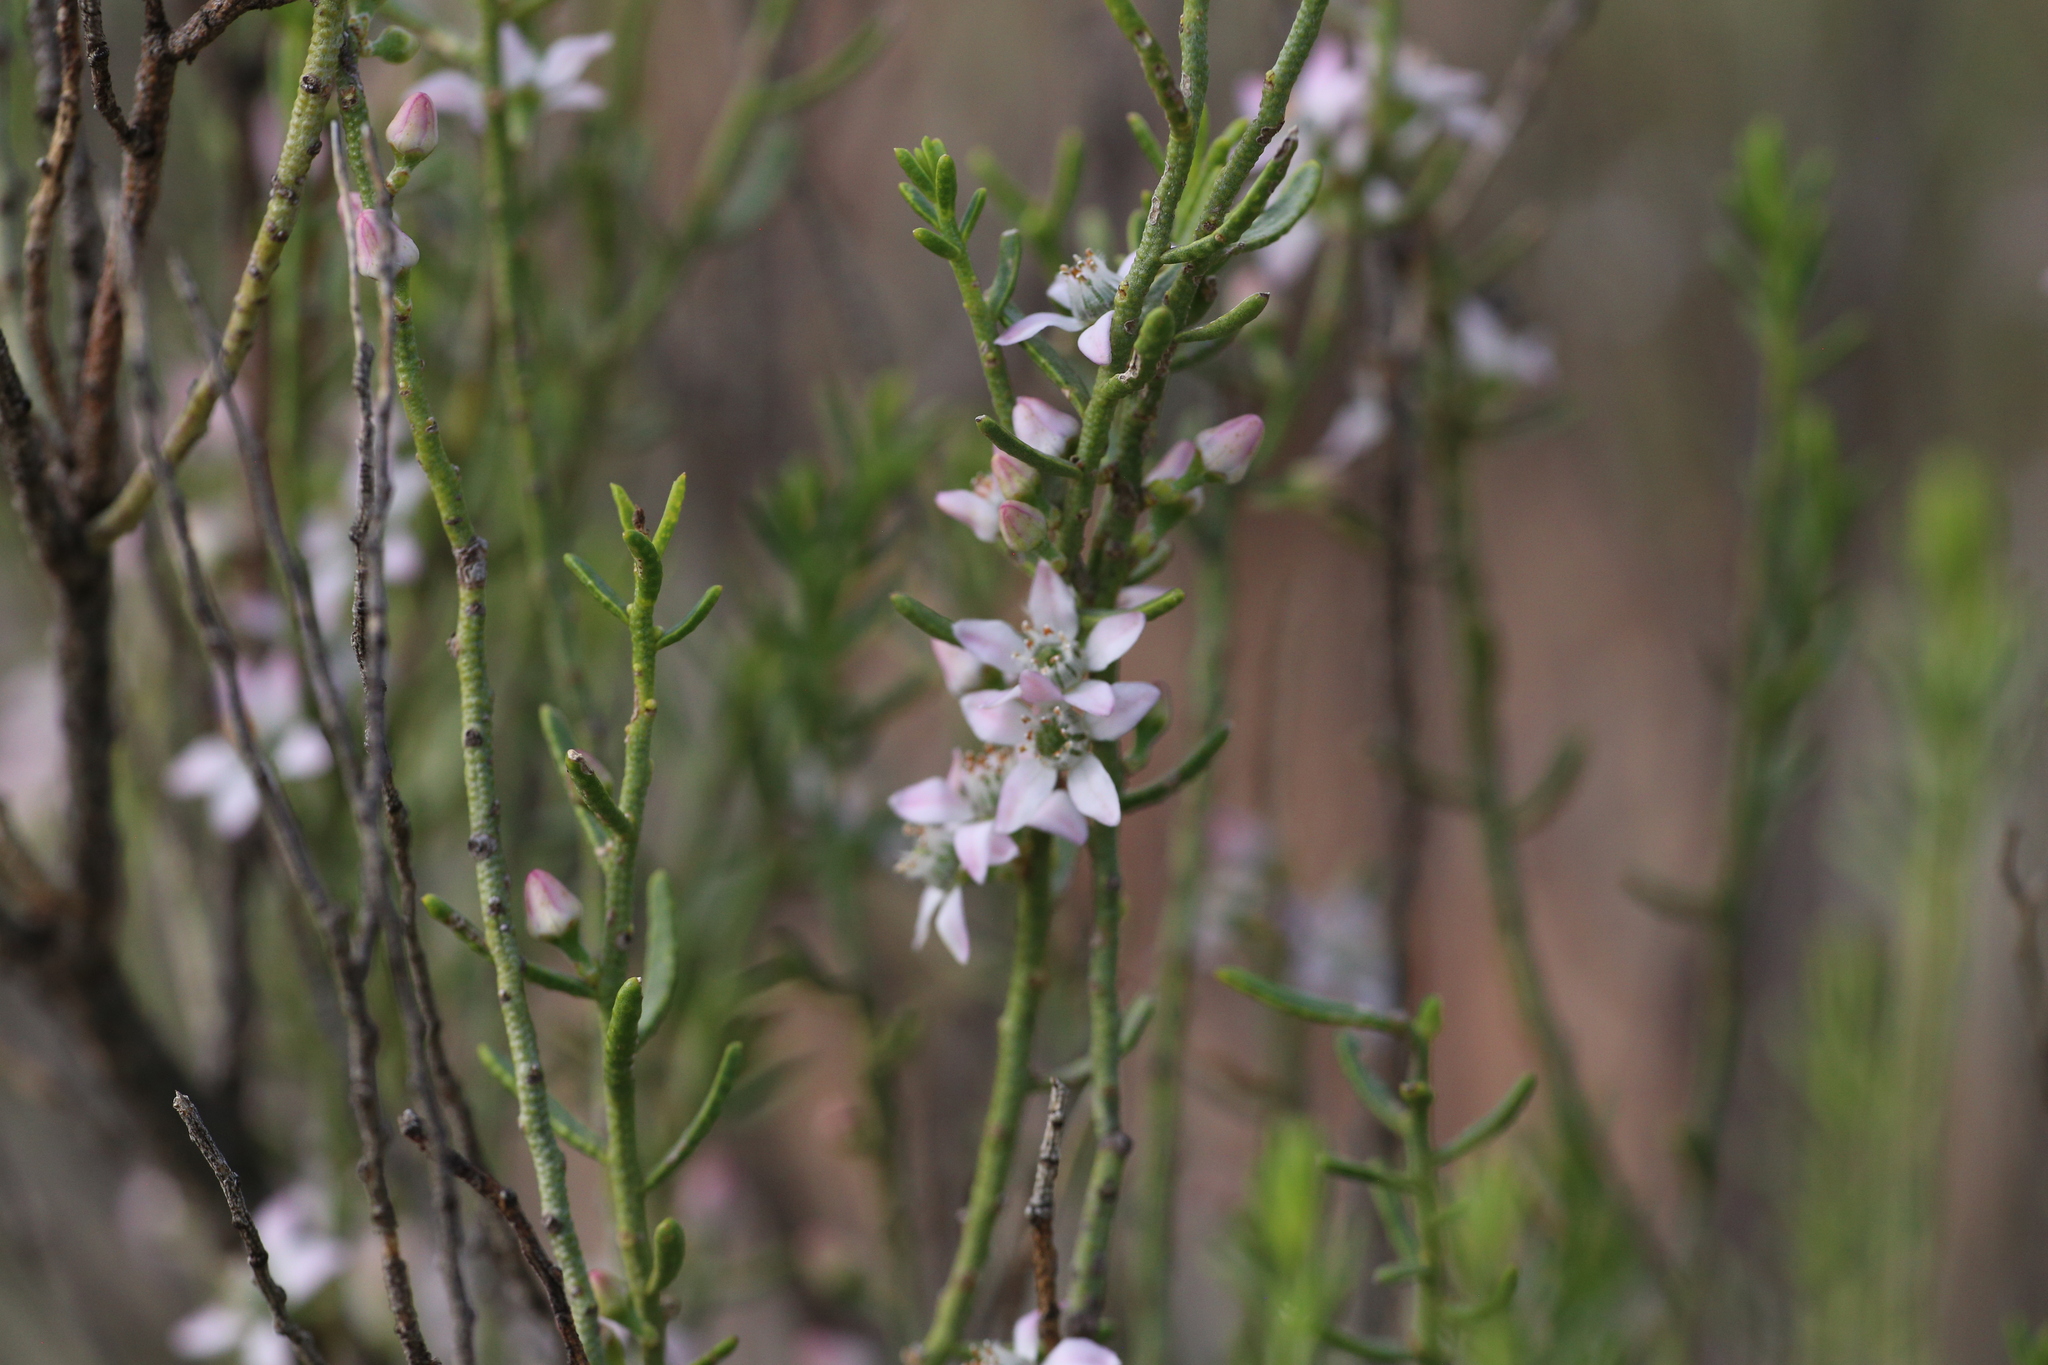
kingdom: Plantae
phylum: Tracheophyta
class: Magnoliopsida
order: Sapindales
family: Rutaceae
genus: Philotheca
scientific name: Philotheca brucei
